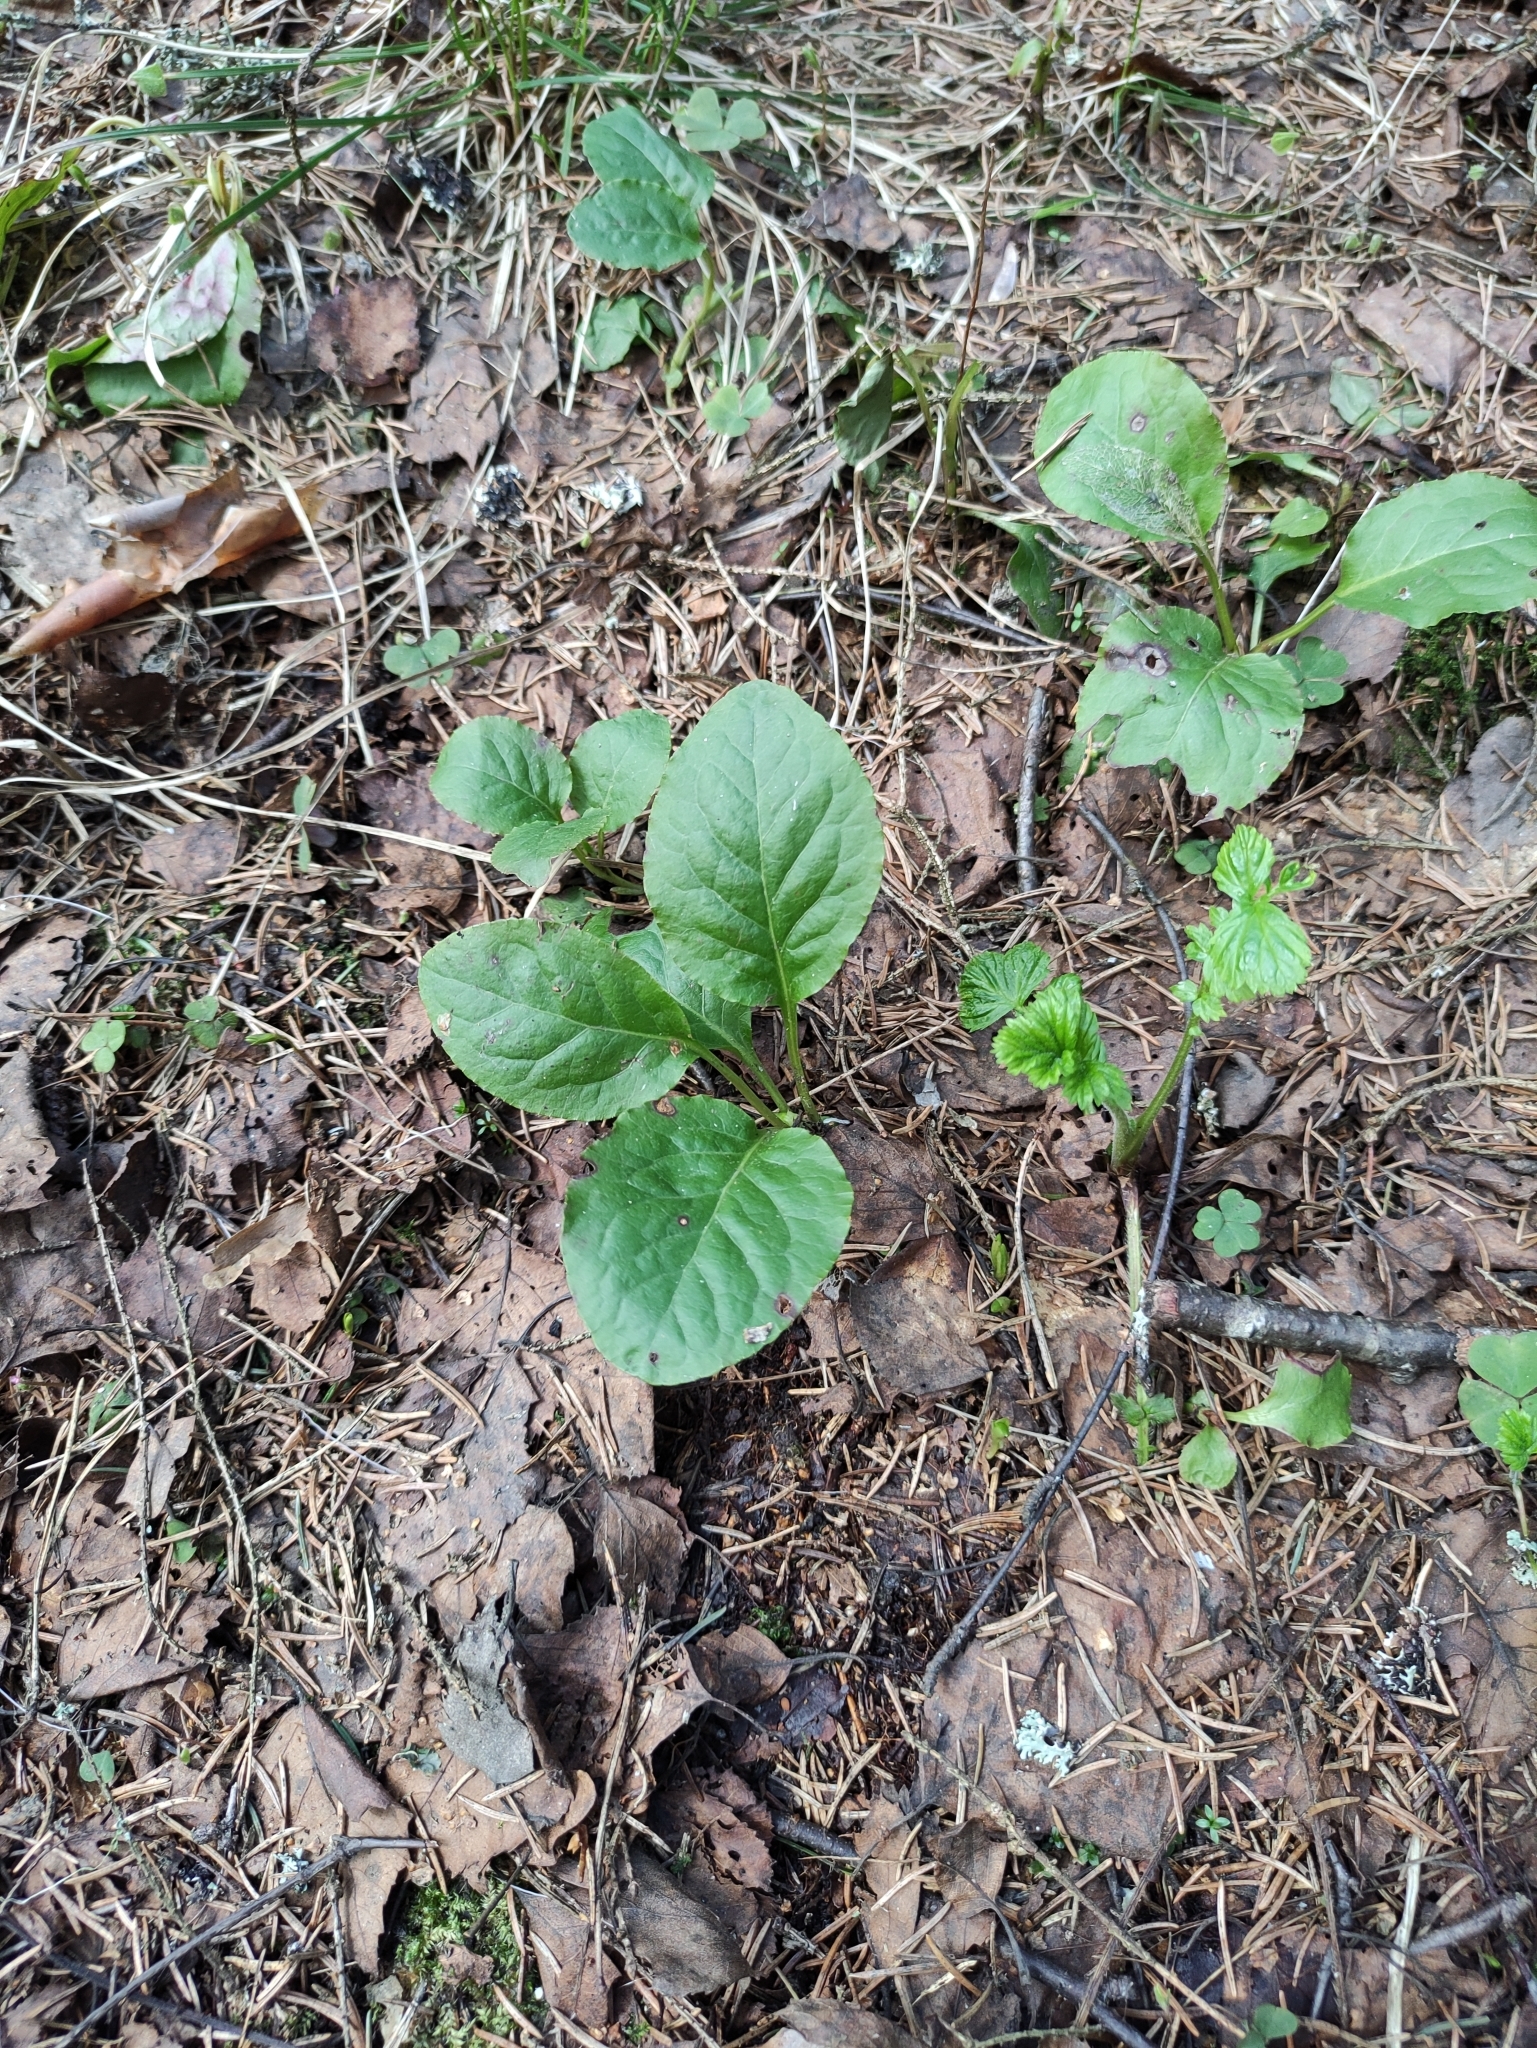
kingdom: Plantae
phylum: Tracheophyta
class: Magnoliopsida
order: Ericales
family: Ericaceae
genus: Pyrola
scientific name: Pyrola minor
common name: Common wintergreen
